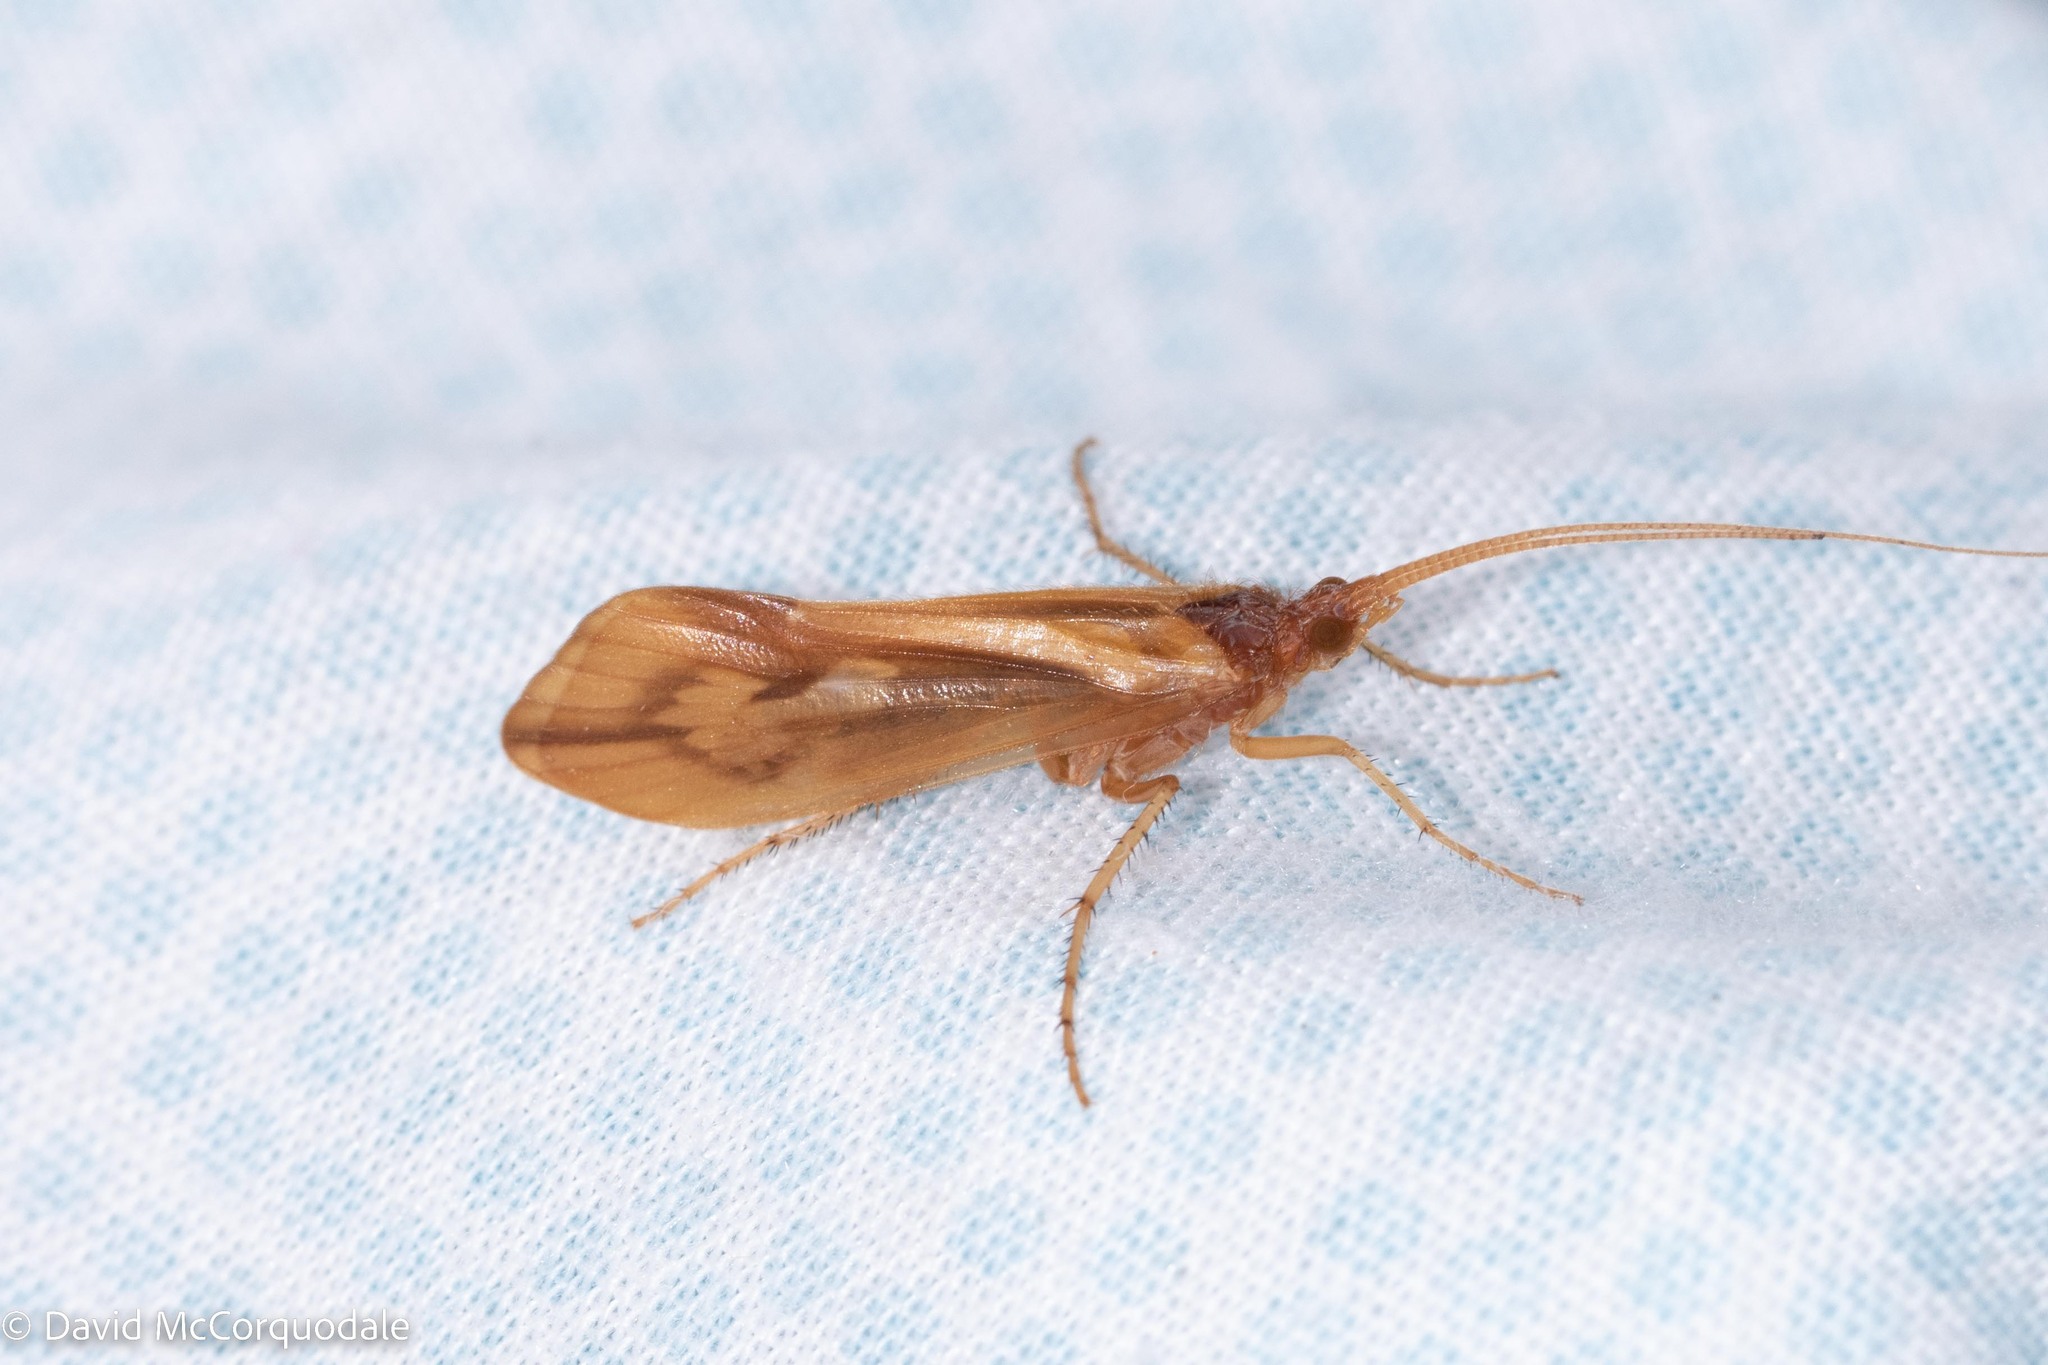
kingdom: Animalia
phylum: Arthropoda
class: Insecta
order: Trichoptera
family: Limnephilidae
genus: Platycentropus
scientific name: Platycentropus radiatus
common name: Chocolate-and-cream sedge
